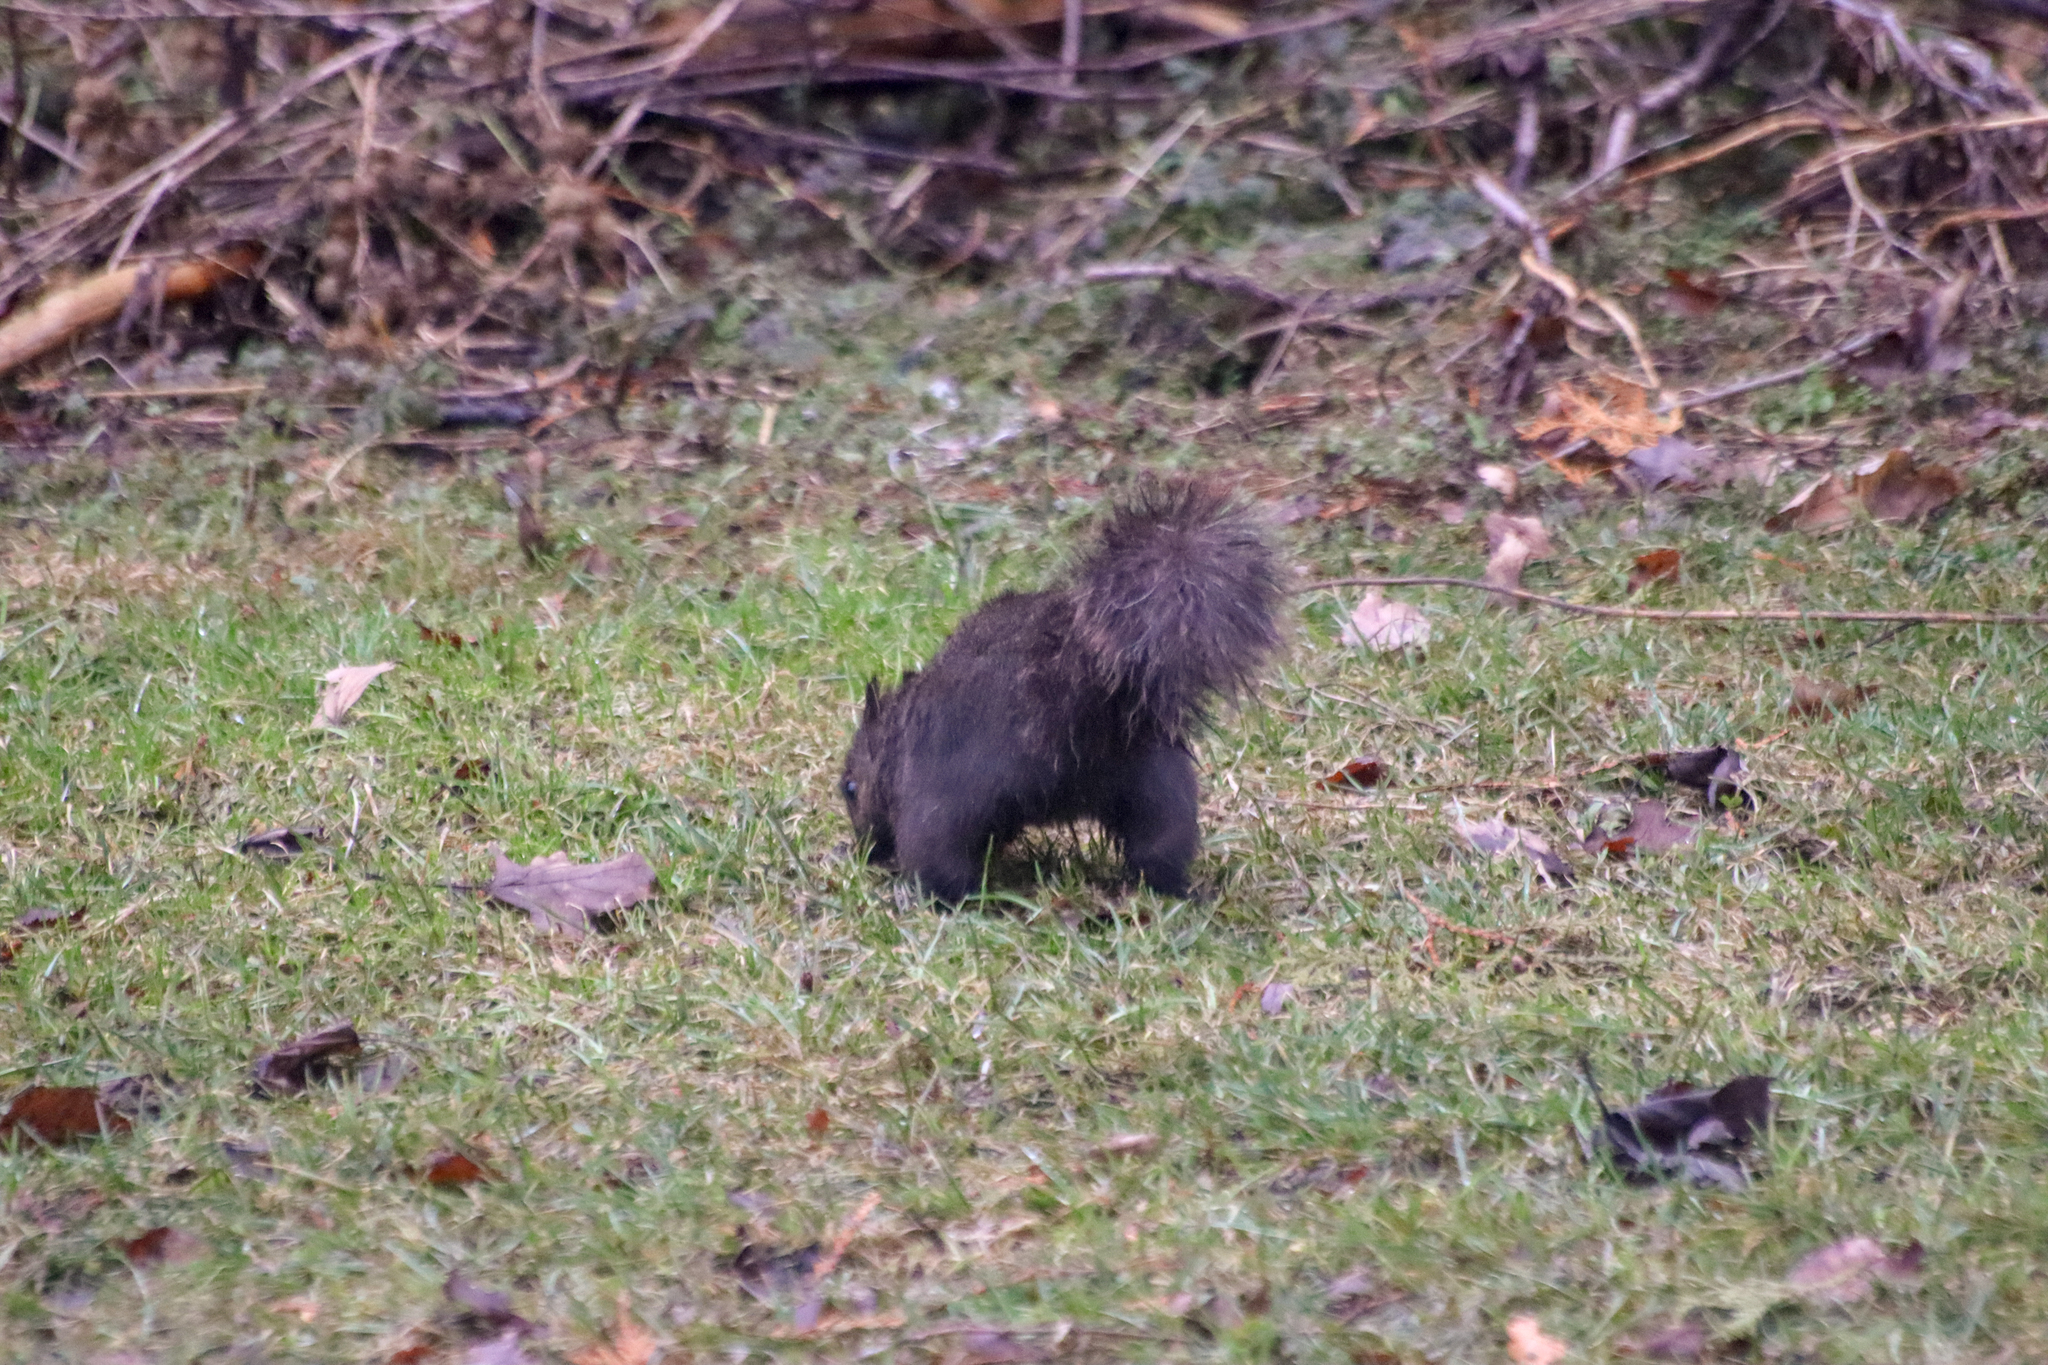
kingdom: Animalia
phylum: Chordata
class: Mammalia
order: Rodentia
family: Sciuridae
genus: Sciurus
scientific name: Sciurus carolinensis
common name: Eastern gray squirrel
